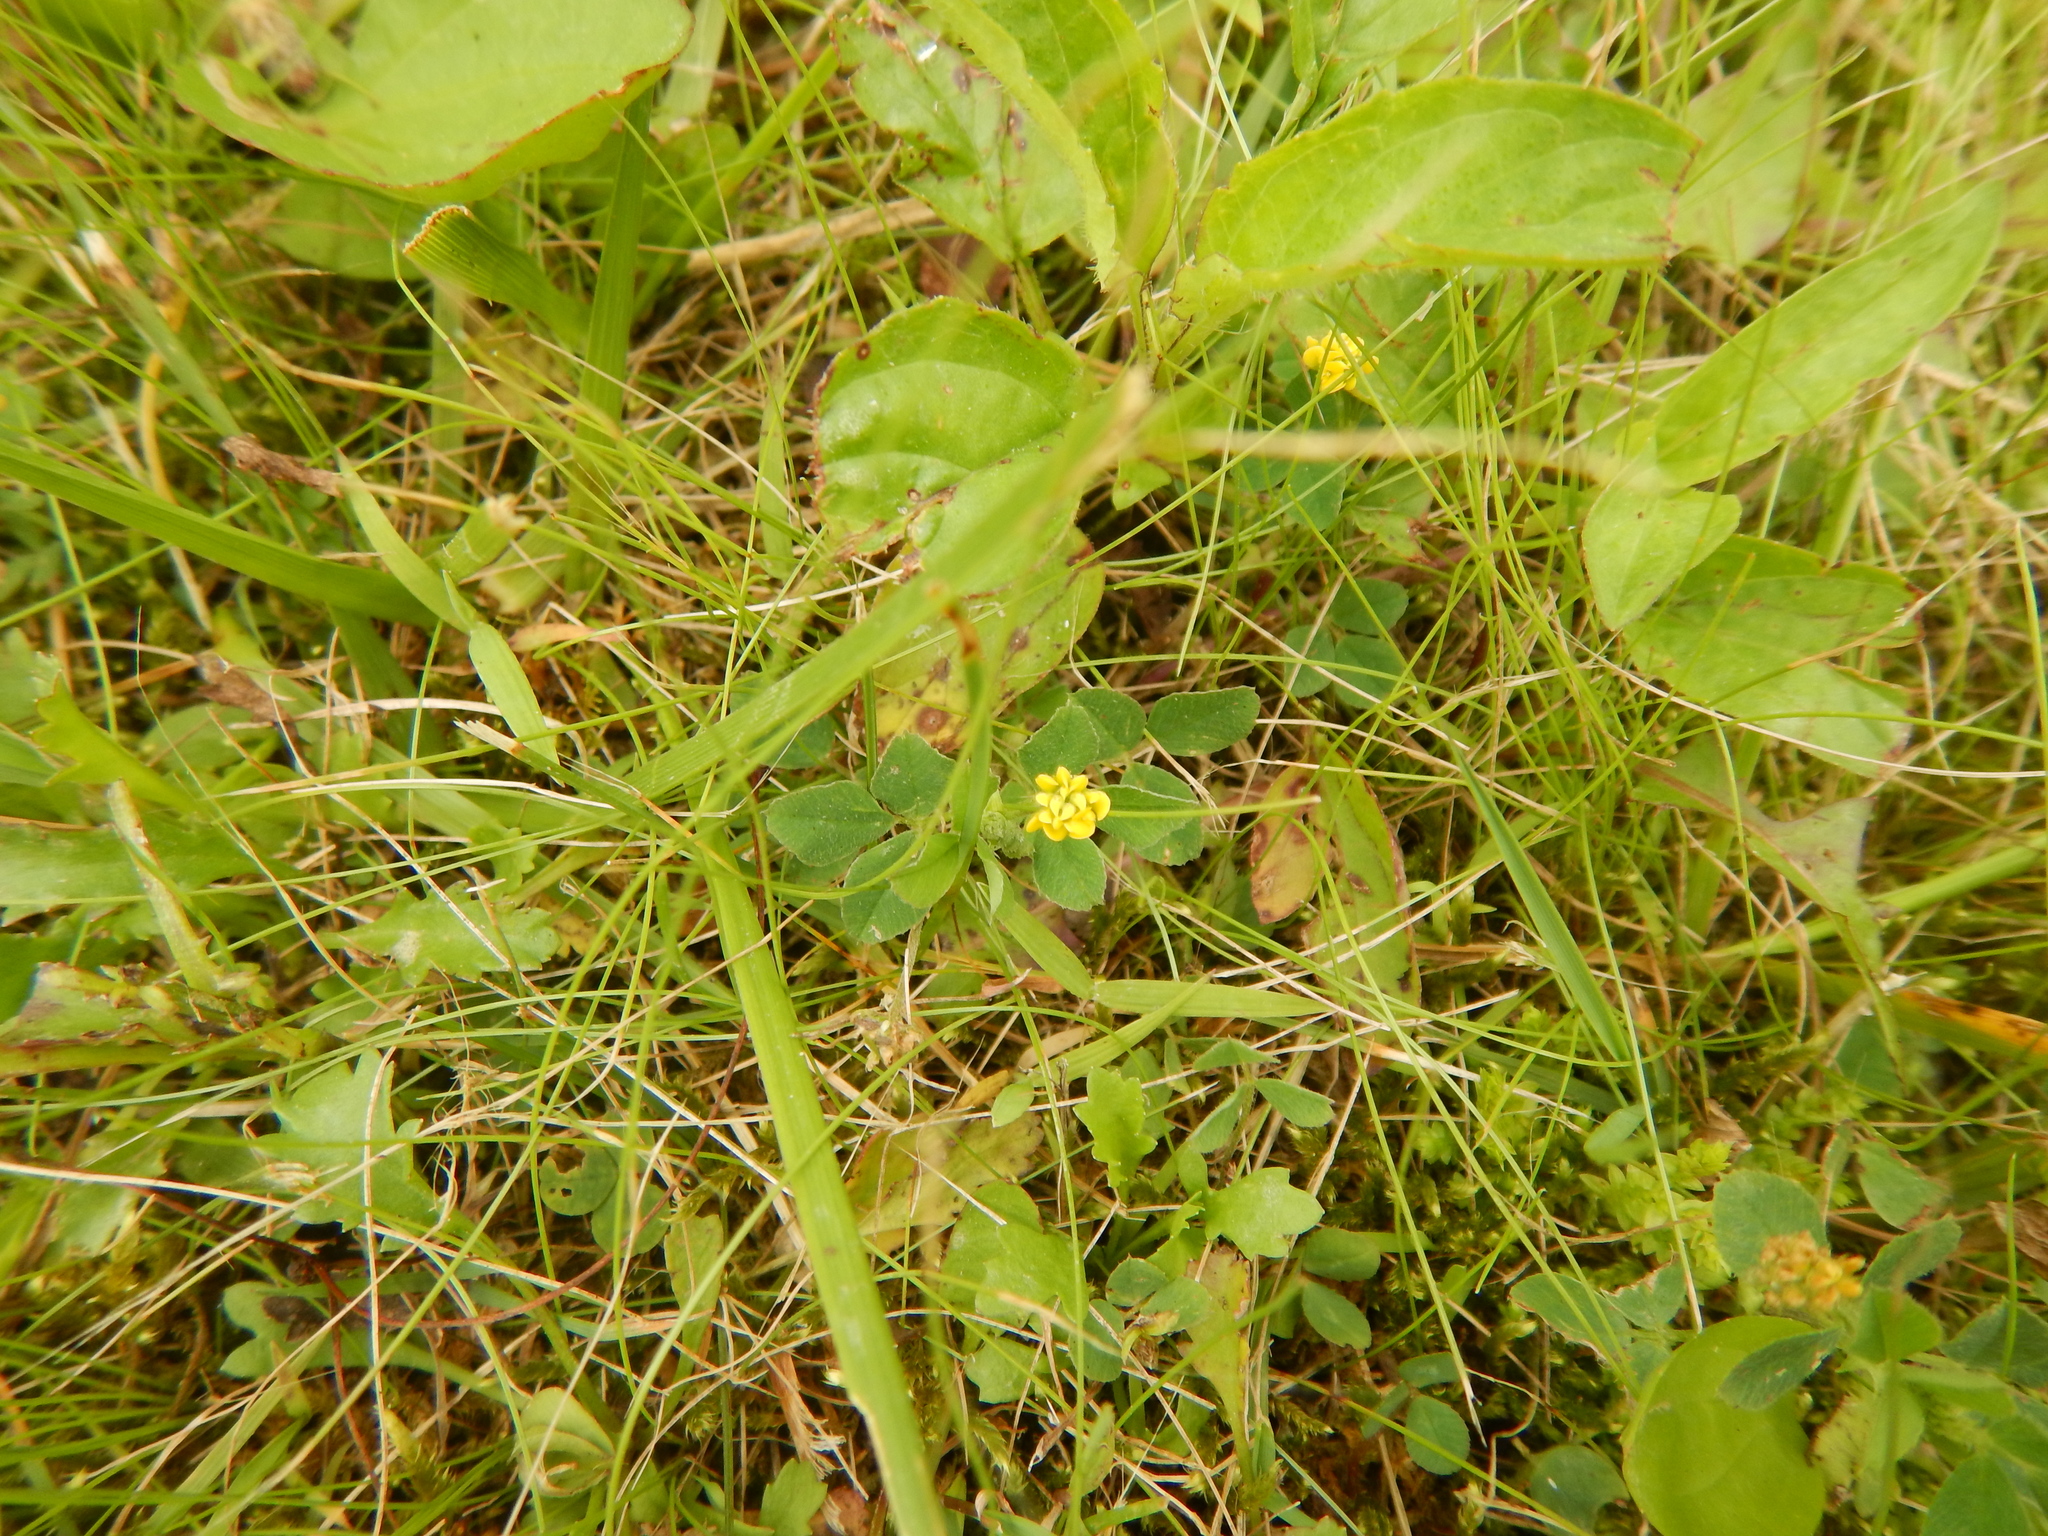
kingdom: Plantae
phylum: Tracheophyta
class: Magnoliopsida
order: Fabales
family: Fabaceae
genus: Medicago
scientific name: Medicago lupulina
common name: Black medick
